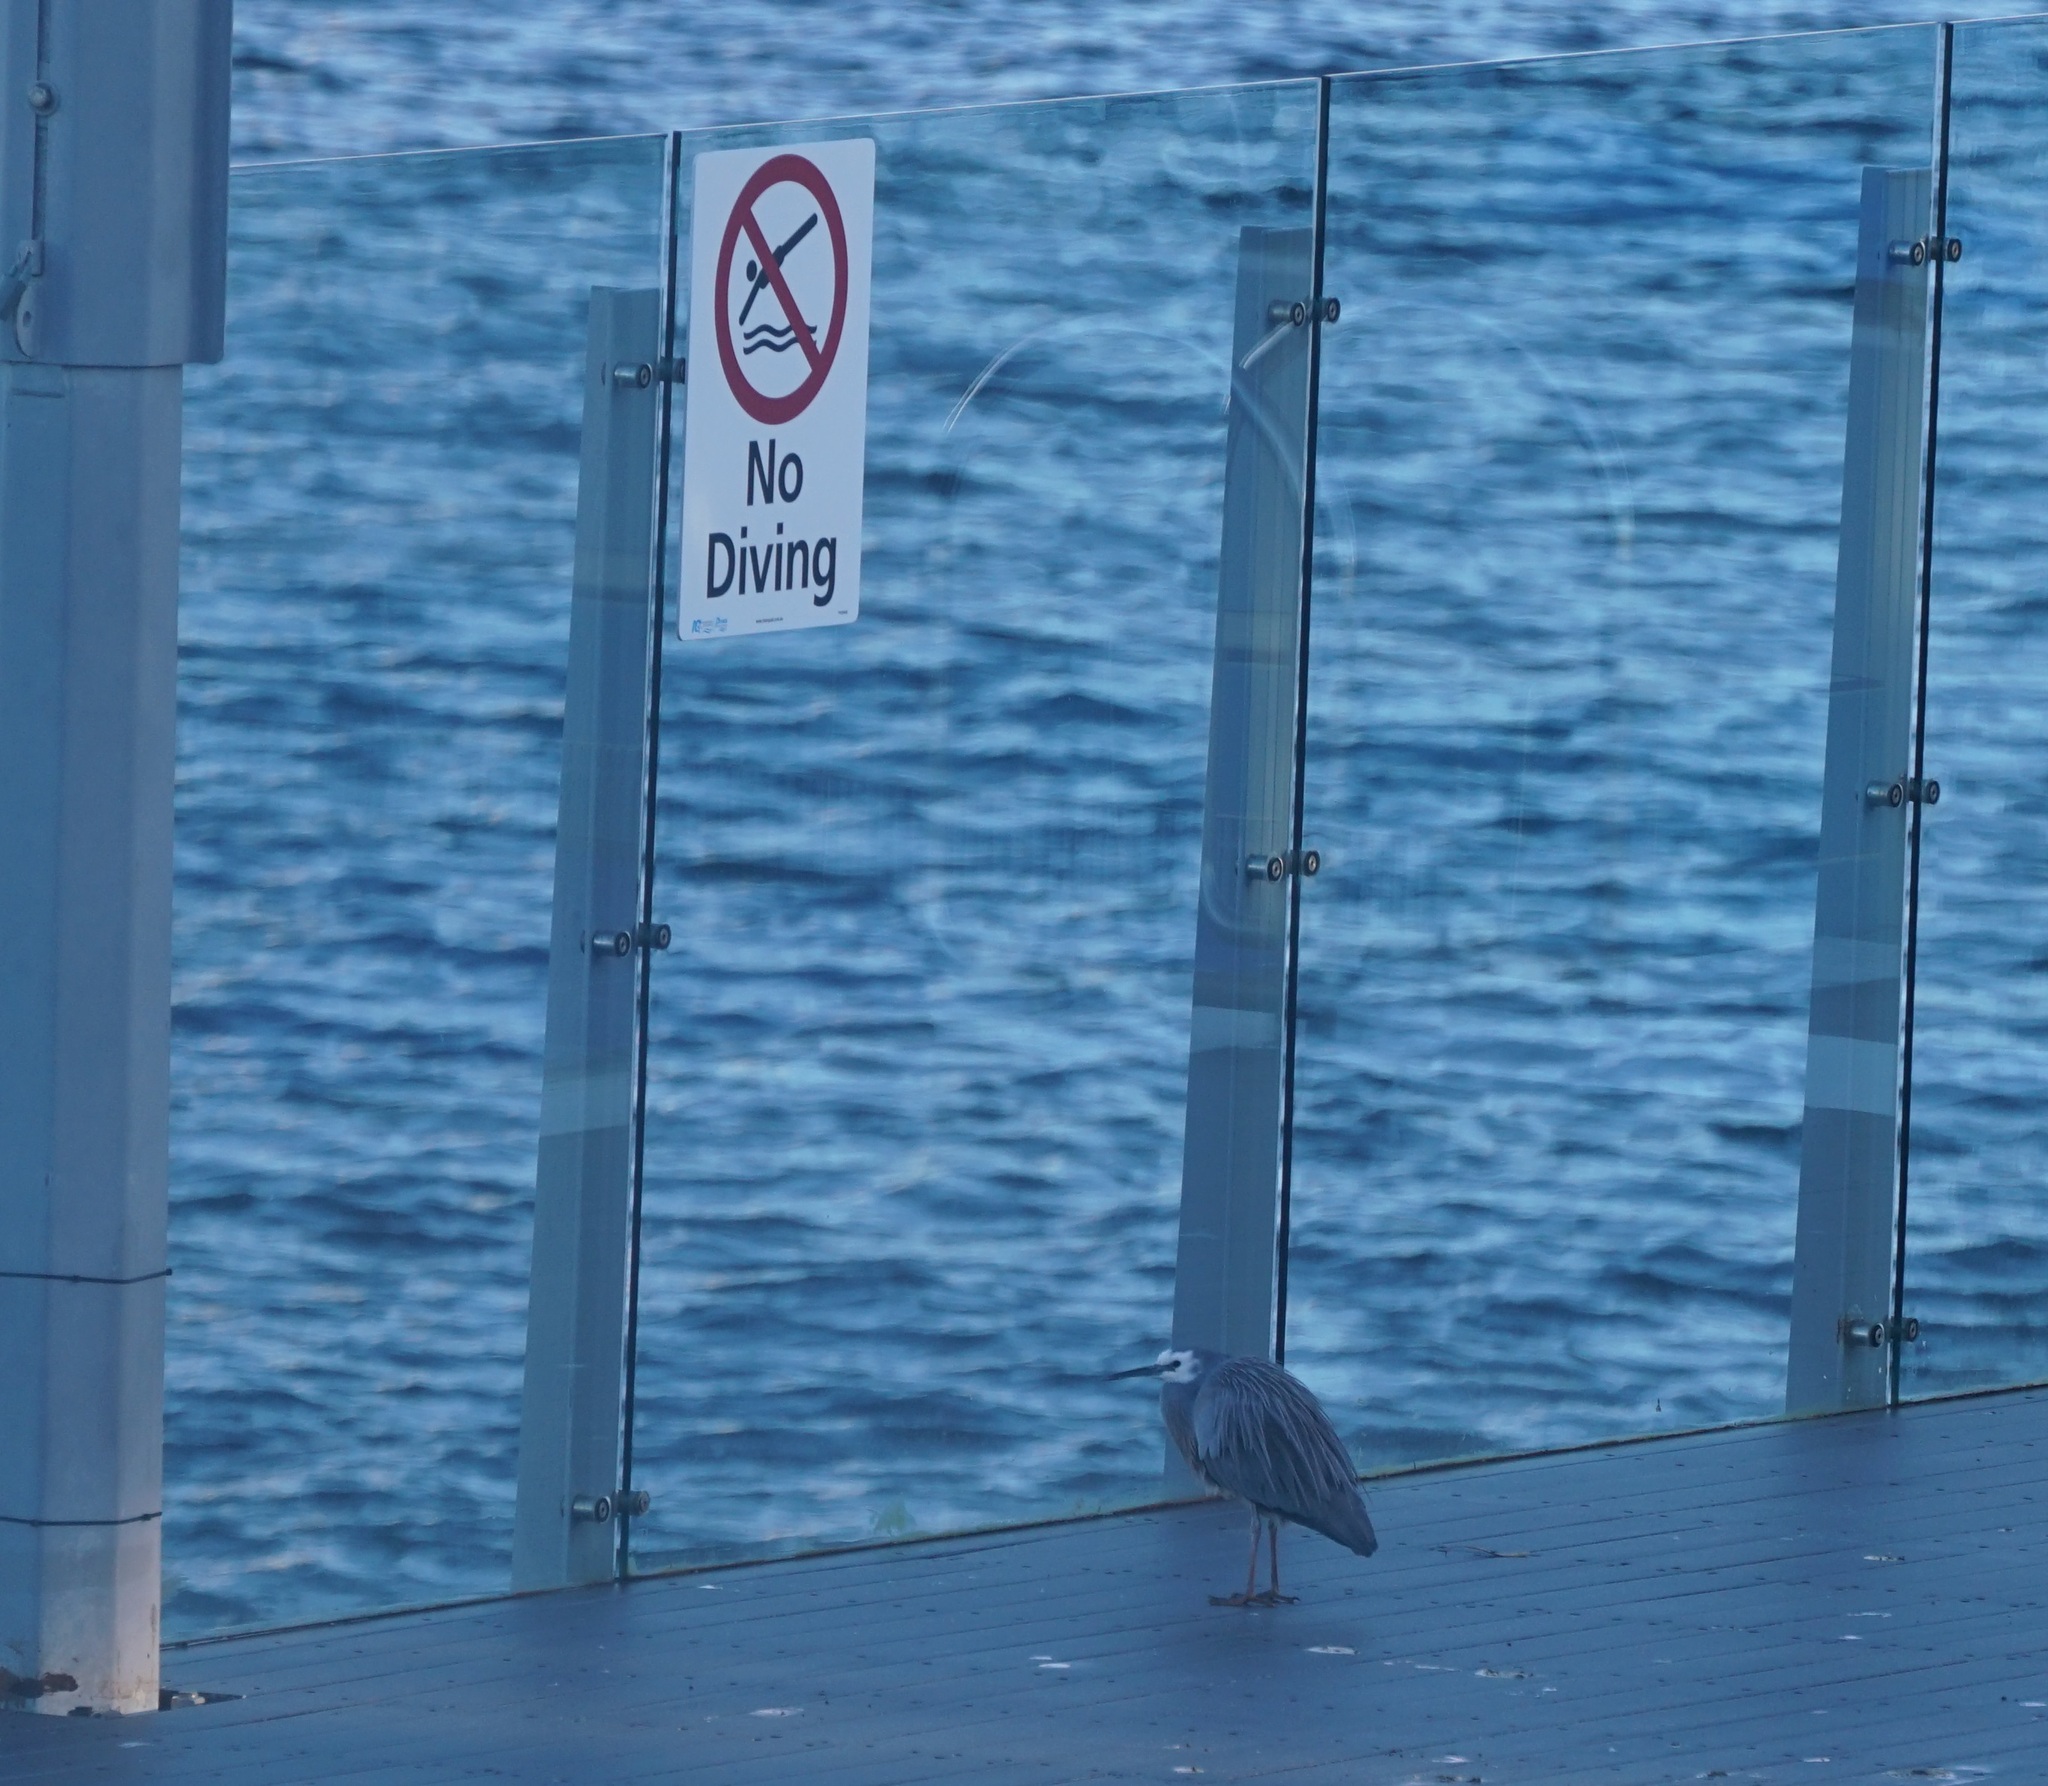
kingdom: Animalia
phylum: Chordata
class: Aves
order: Pelecaniformes
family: Ardeidae
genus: Egretta
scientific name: Egretta novaehollandiae
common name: White-faced heron
